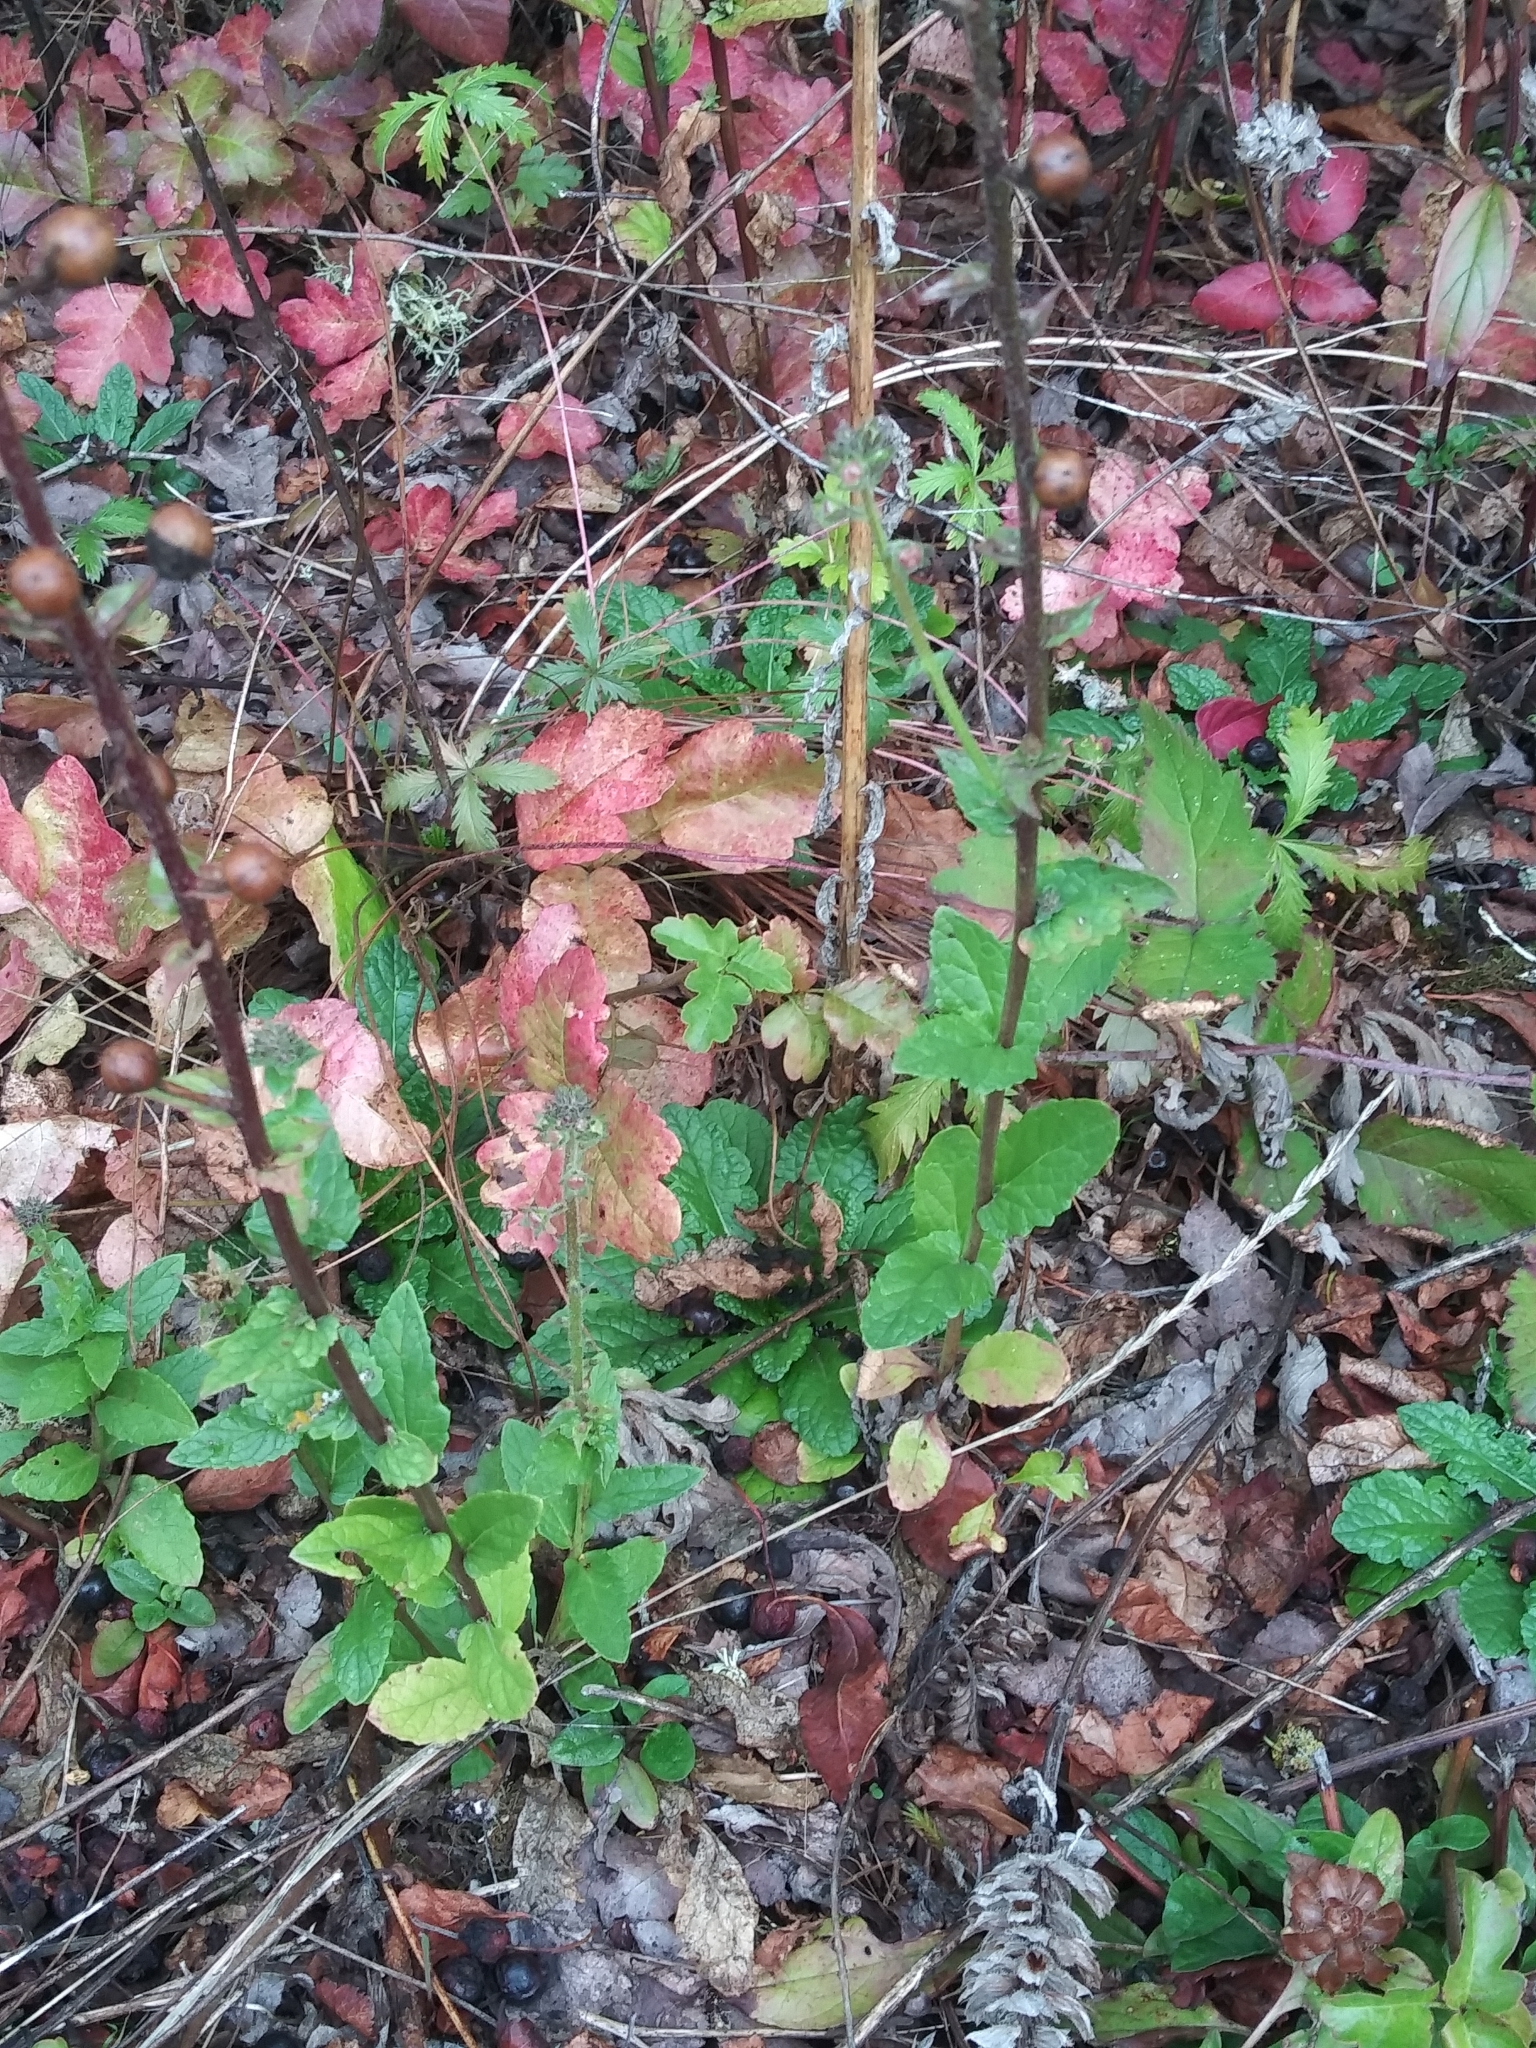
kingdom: Plantae
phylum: Tracheophyta
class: Magnoliopsida
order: Lamiales
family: Scrophulariaceae
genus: Verbascum
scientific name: Verbascum blattaria
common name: Moth mullein
